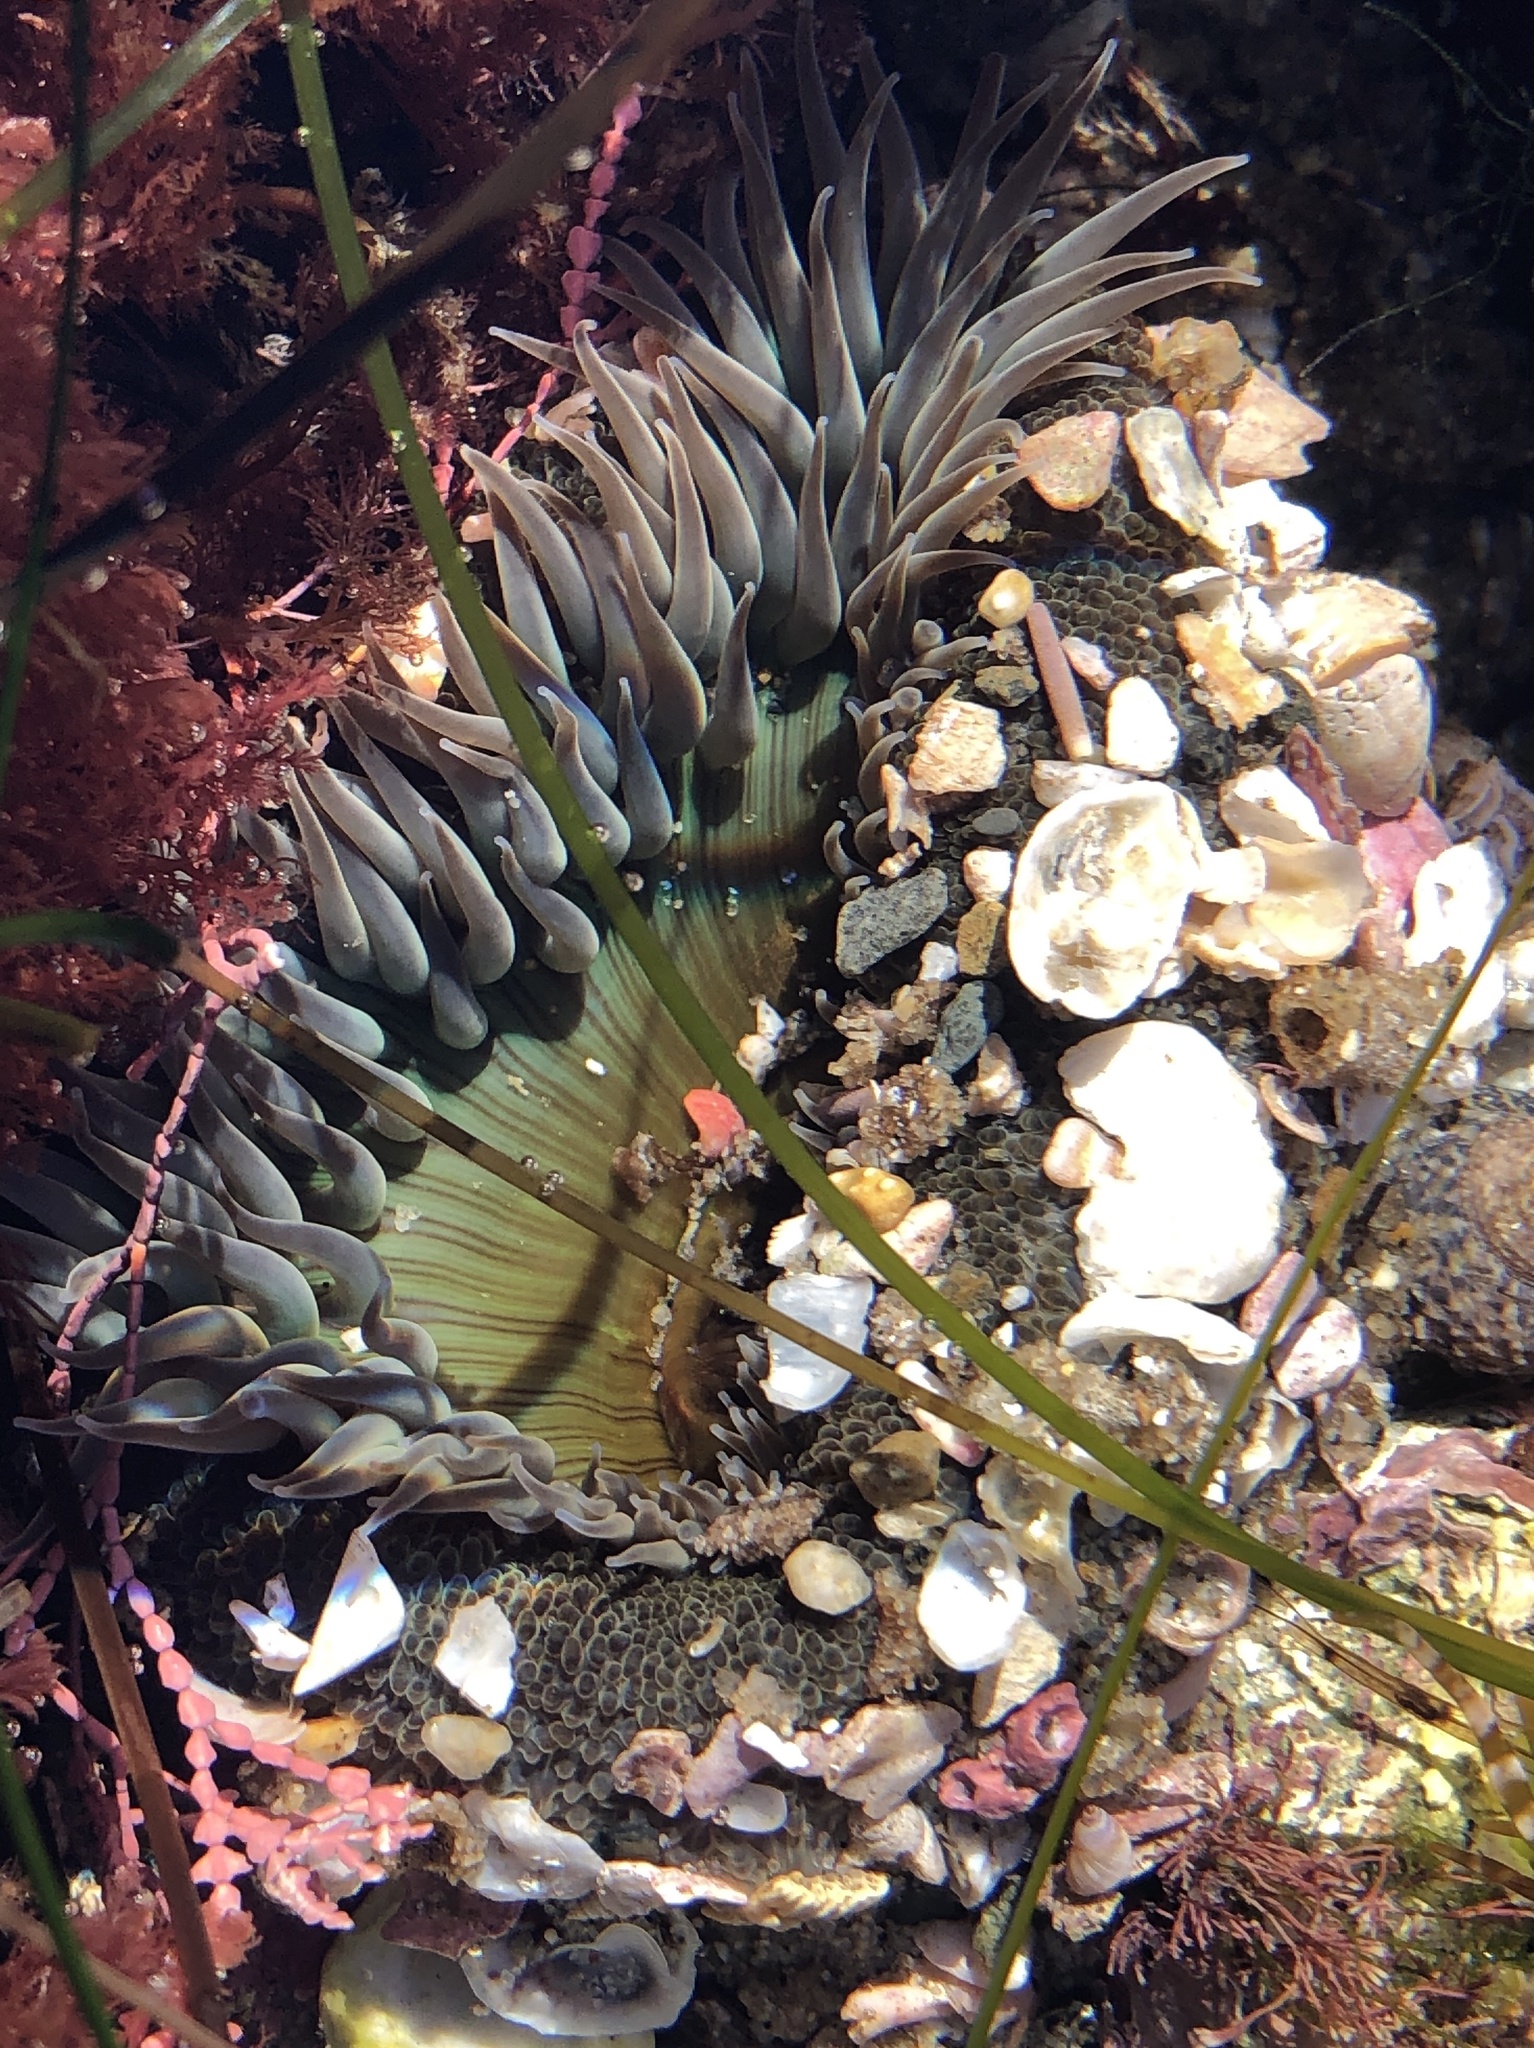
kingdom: Animalia
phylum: Cnidaria
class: Anthozoa
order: Actiniaria
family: Actiniidae
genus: Anthopleura
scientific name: Anthopleura sola
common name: Sun anemone
